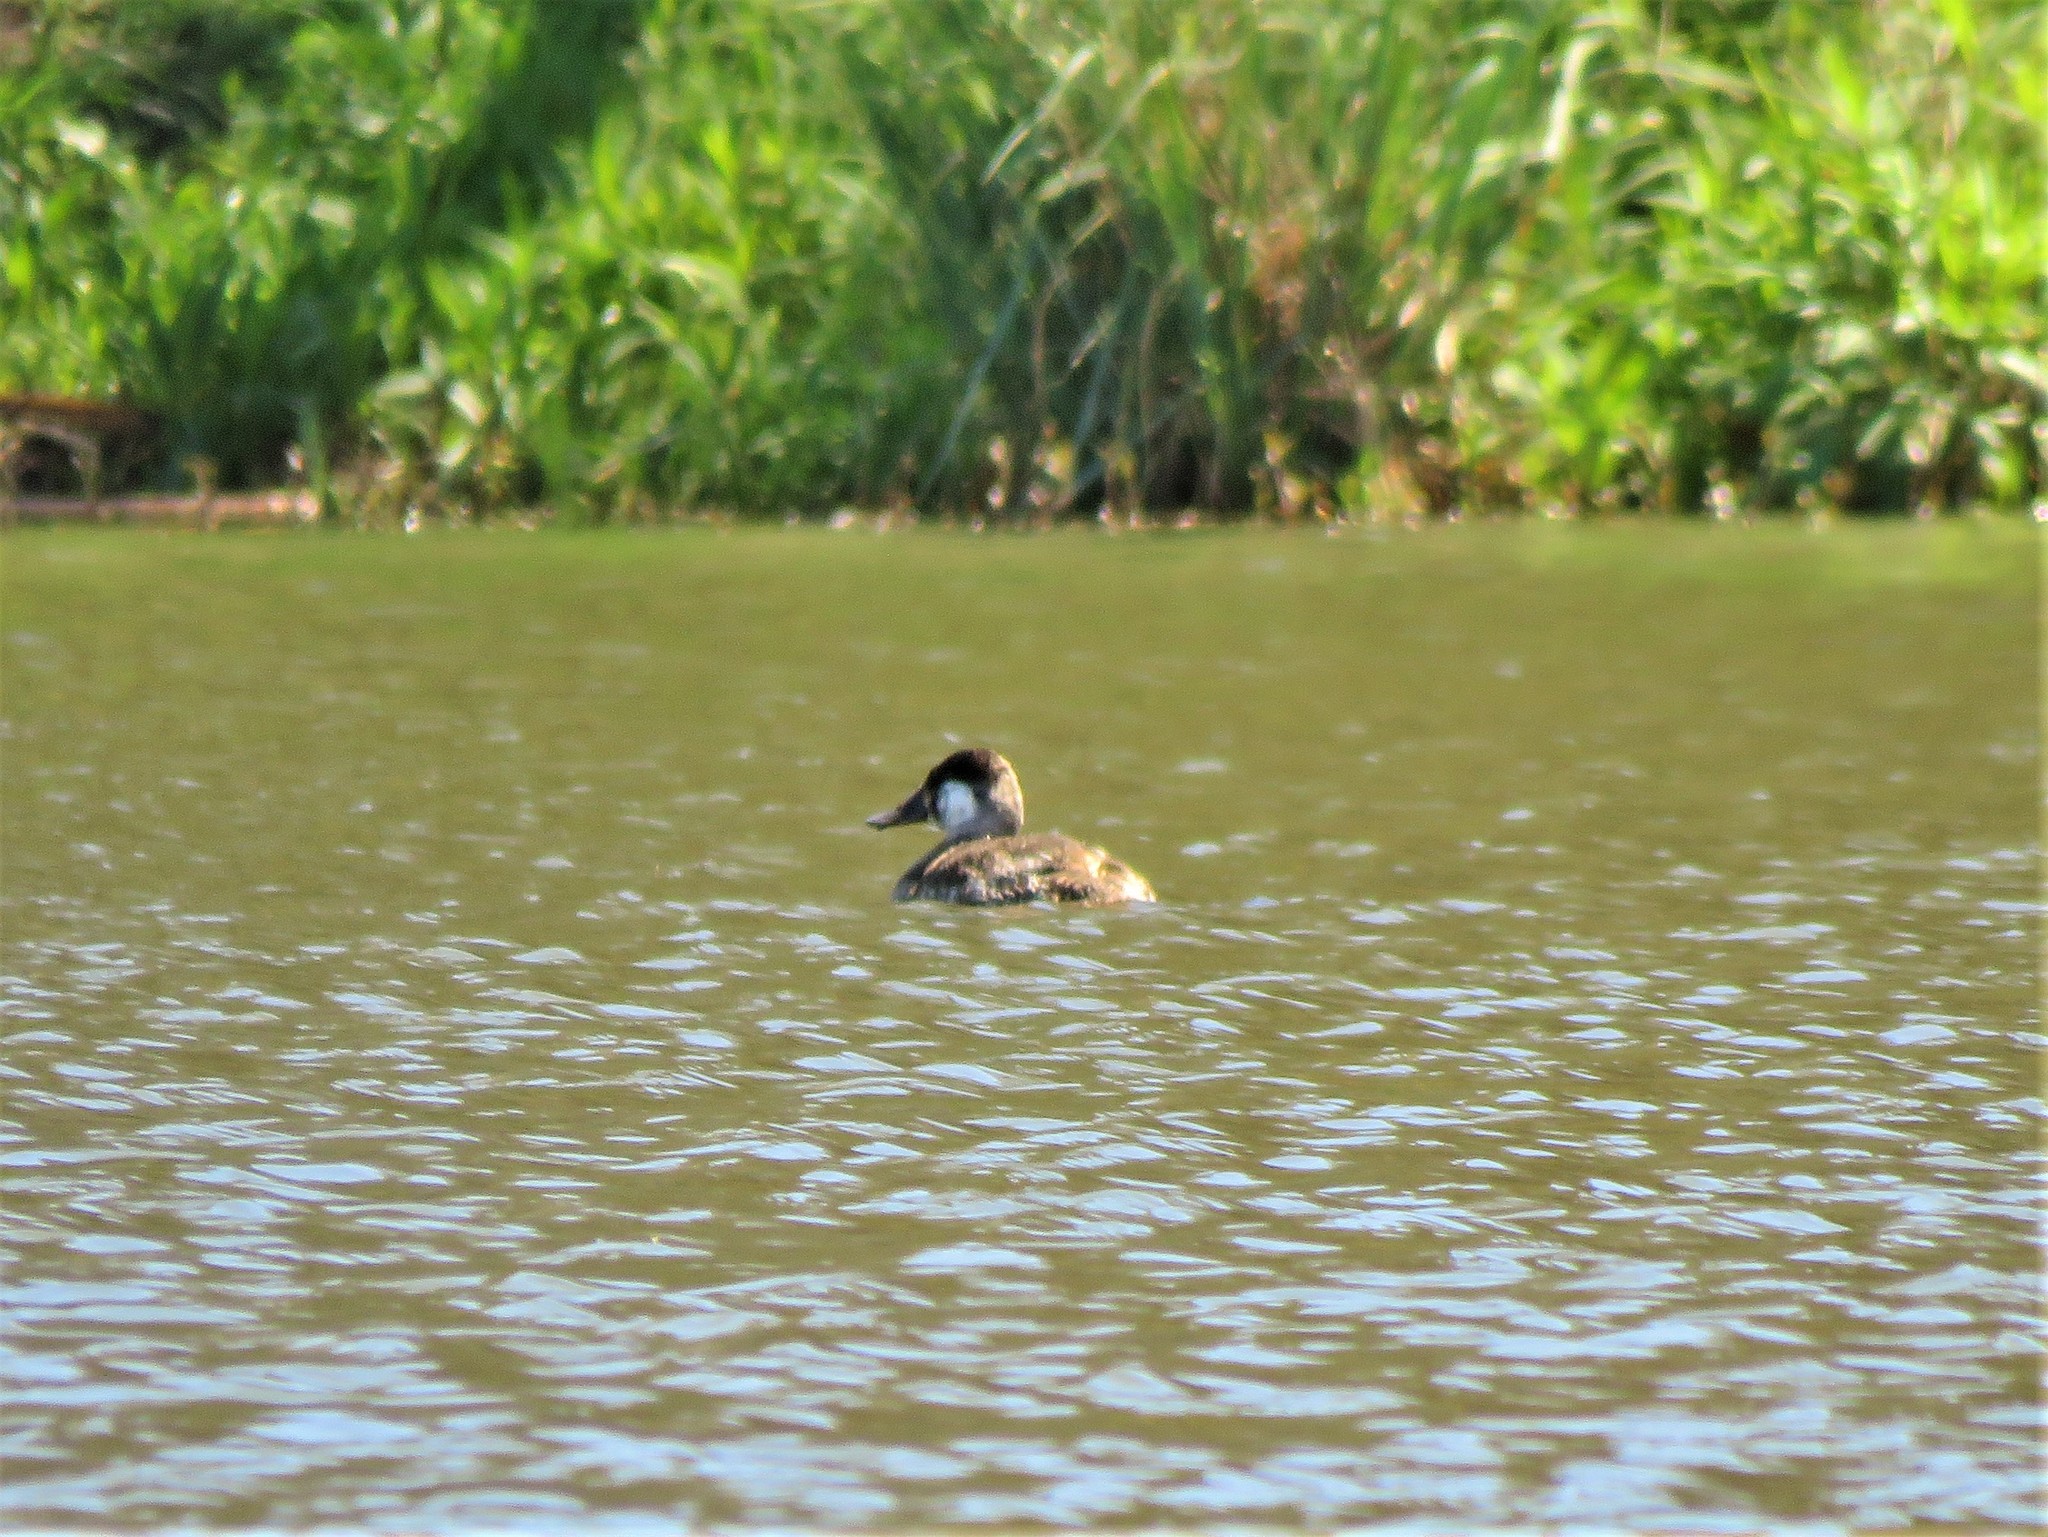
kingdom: Animalia
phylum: Chordata
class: Aves
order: Anseriformes
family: Anatidae
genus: Oxyura
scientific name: Oxyura jamaicensis
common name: Ruddy duck
